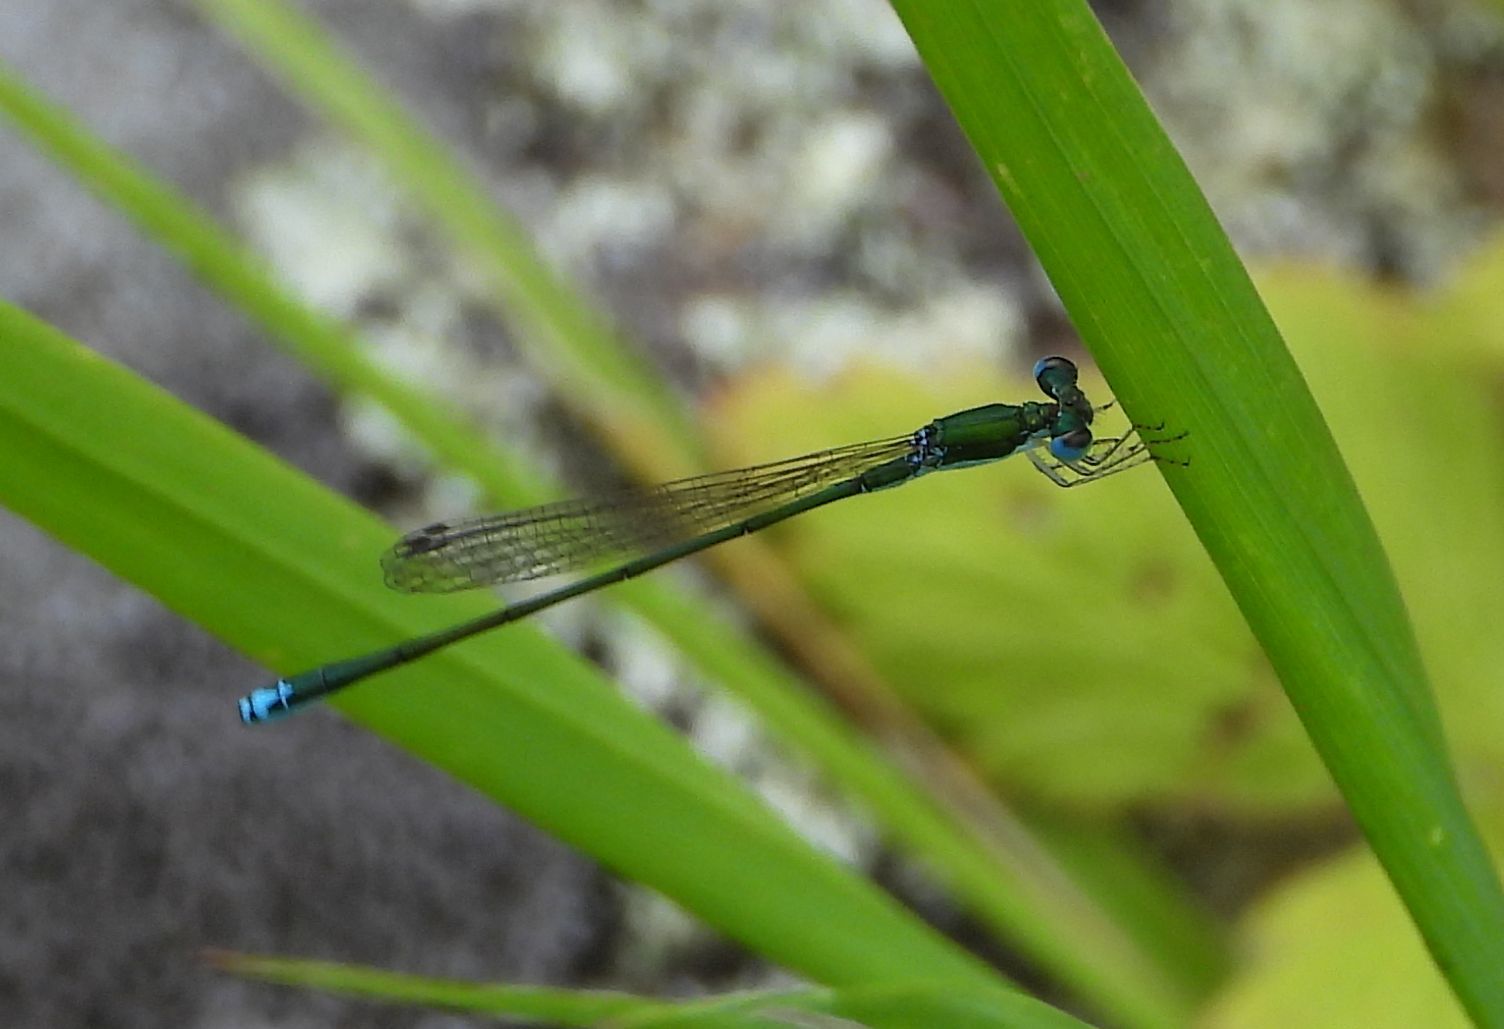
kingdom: Animalia
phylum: Arthropoda
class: Insecta
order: Odonata
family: Coenagrionidae
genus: Nehalennia
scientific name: Nehalennia irene
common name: Sedge sprite
